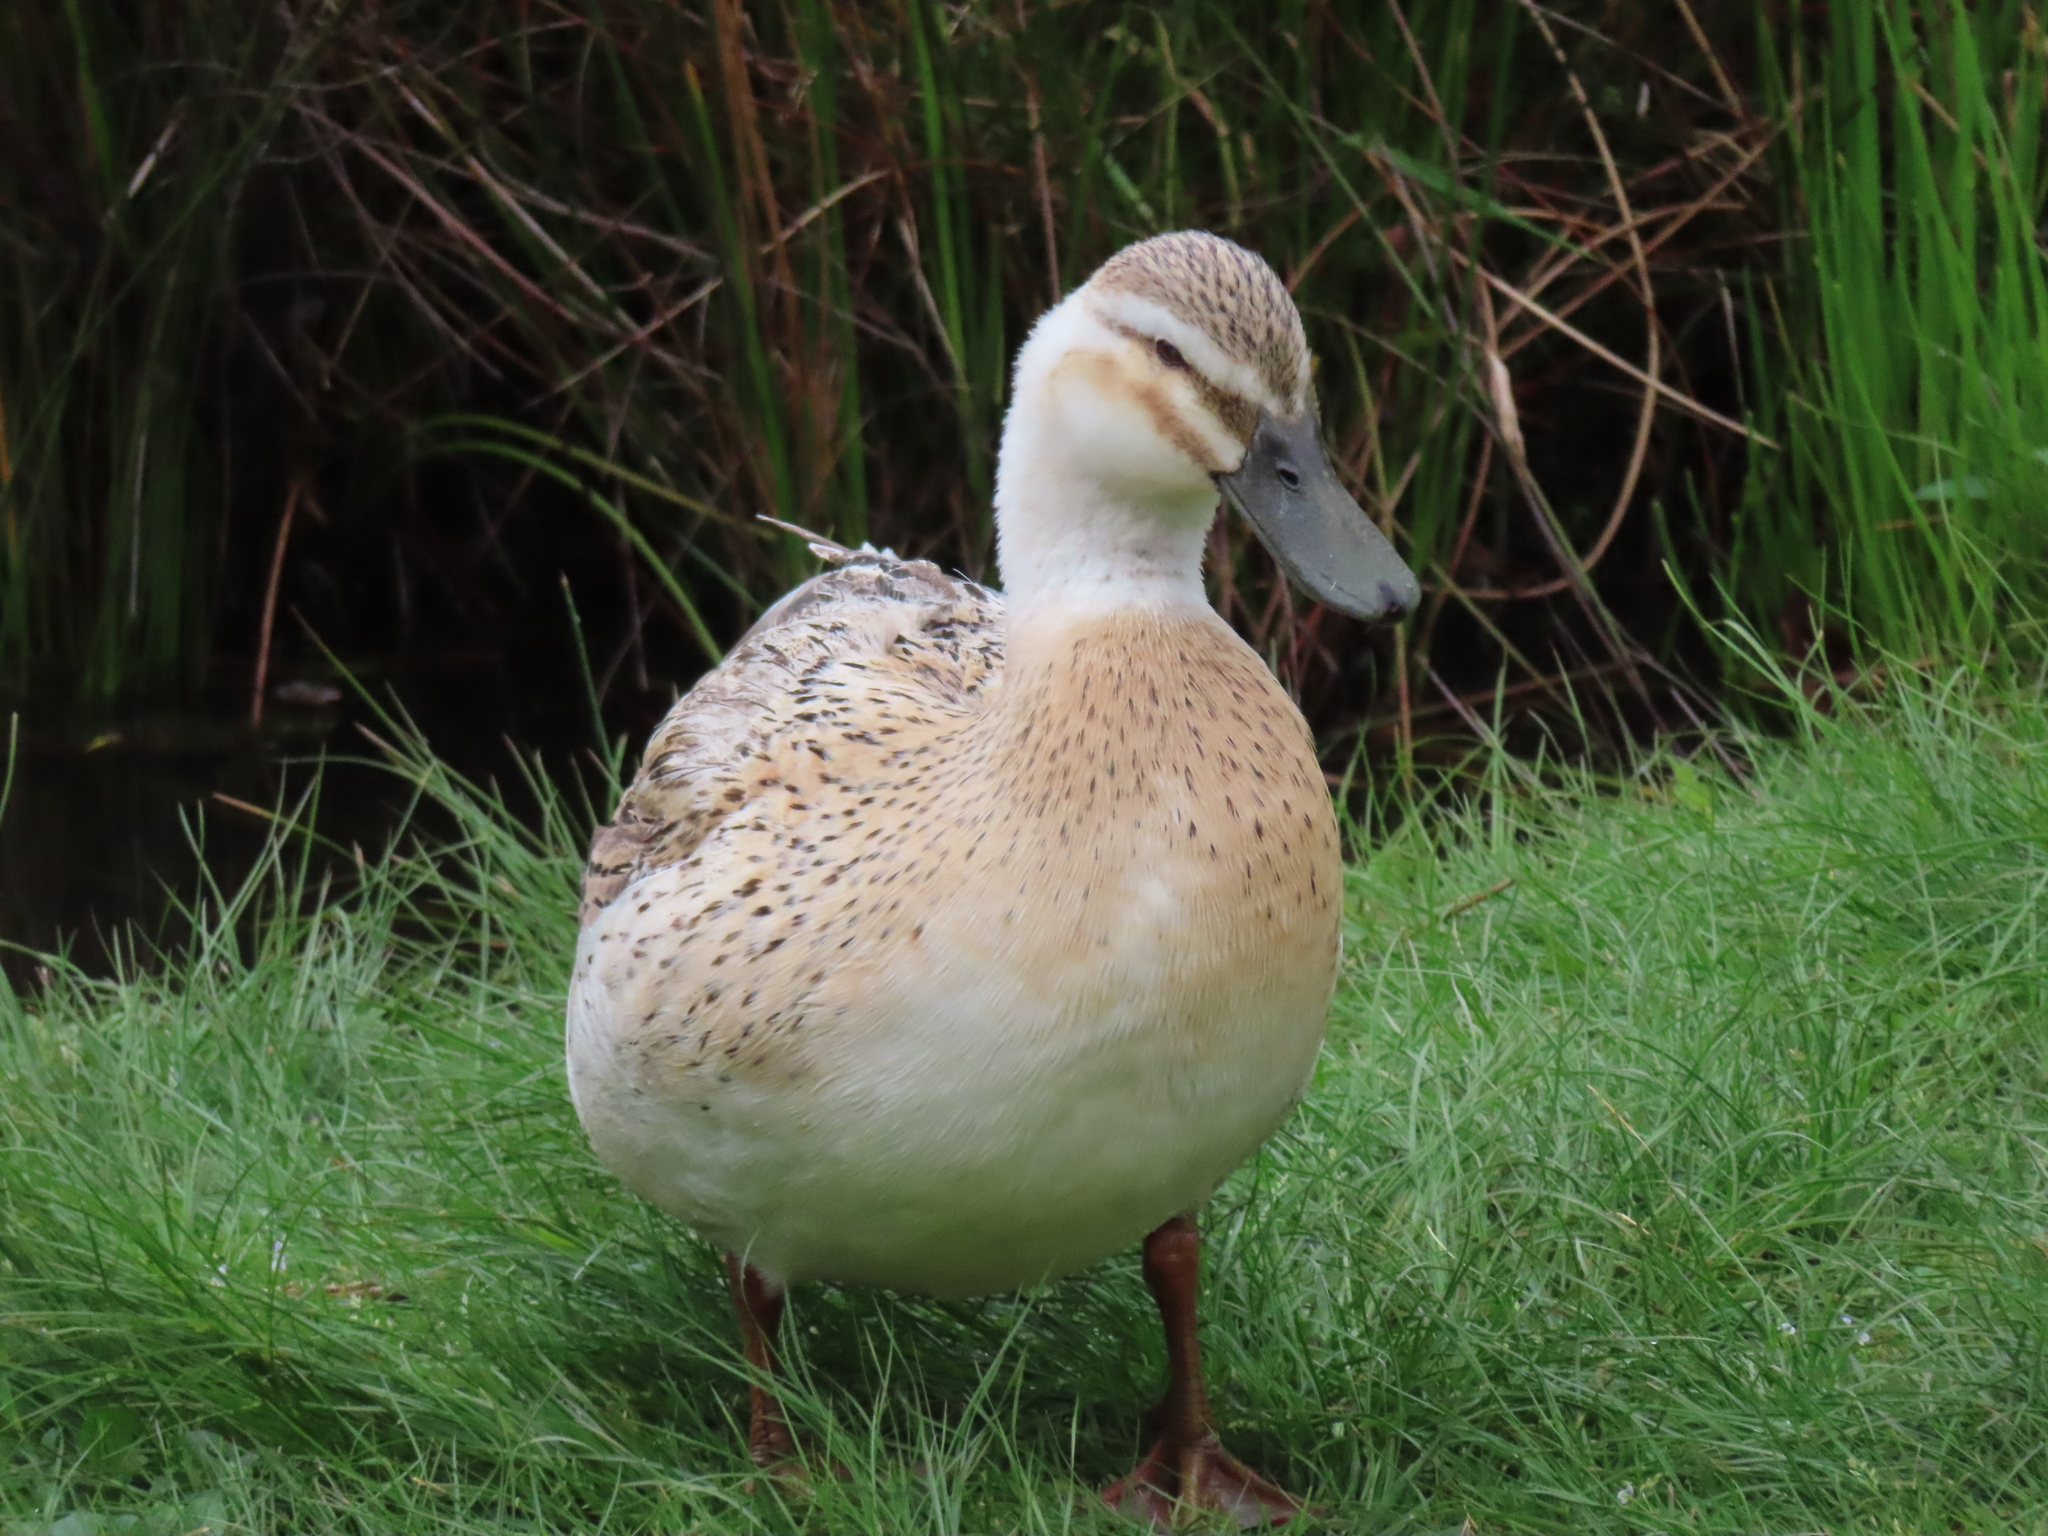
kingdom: Animalia
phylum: Chordata
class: Aves
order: Anseriformes
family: Anatidae
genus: Anas
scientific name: Anas platyrhynchos
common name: Mallard
